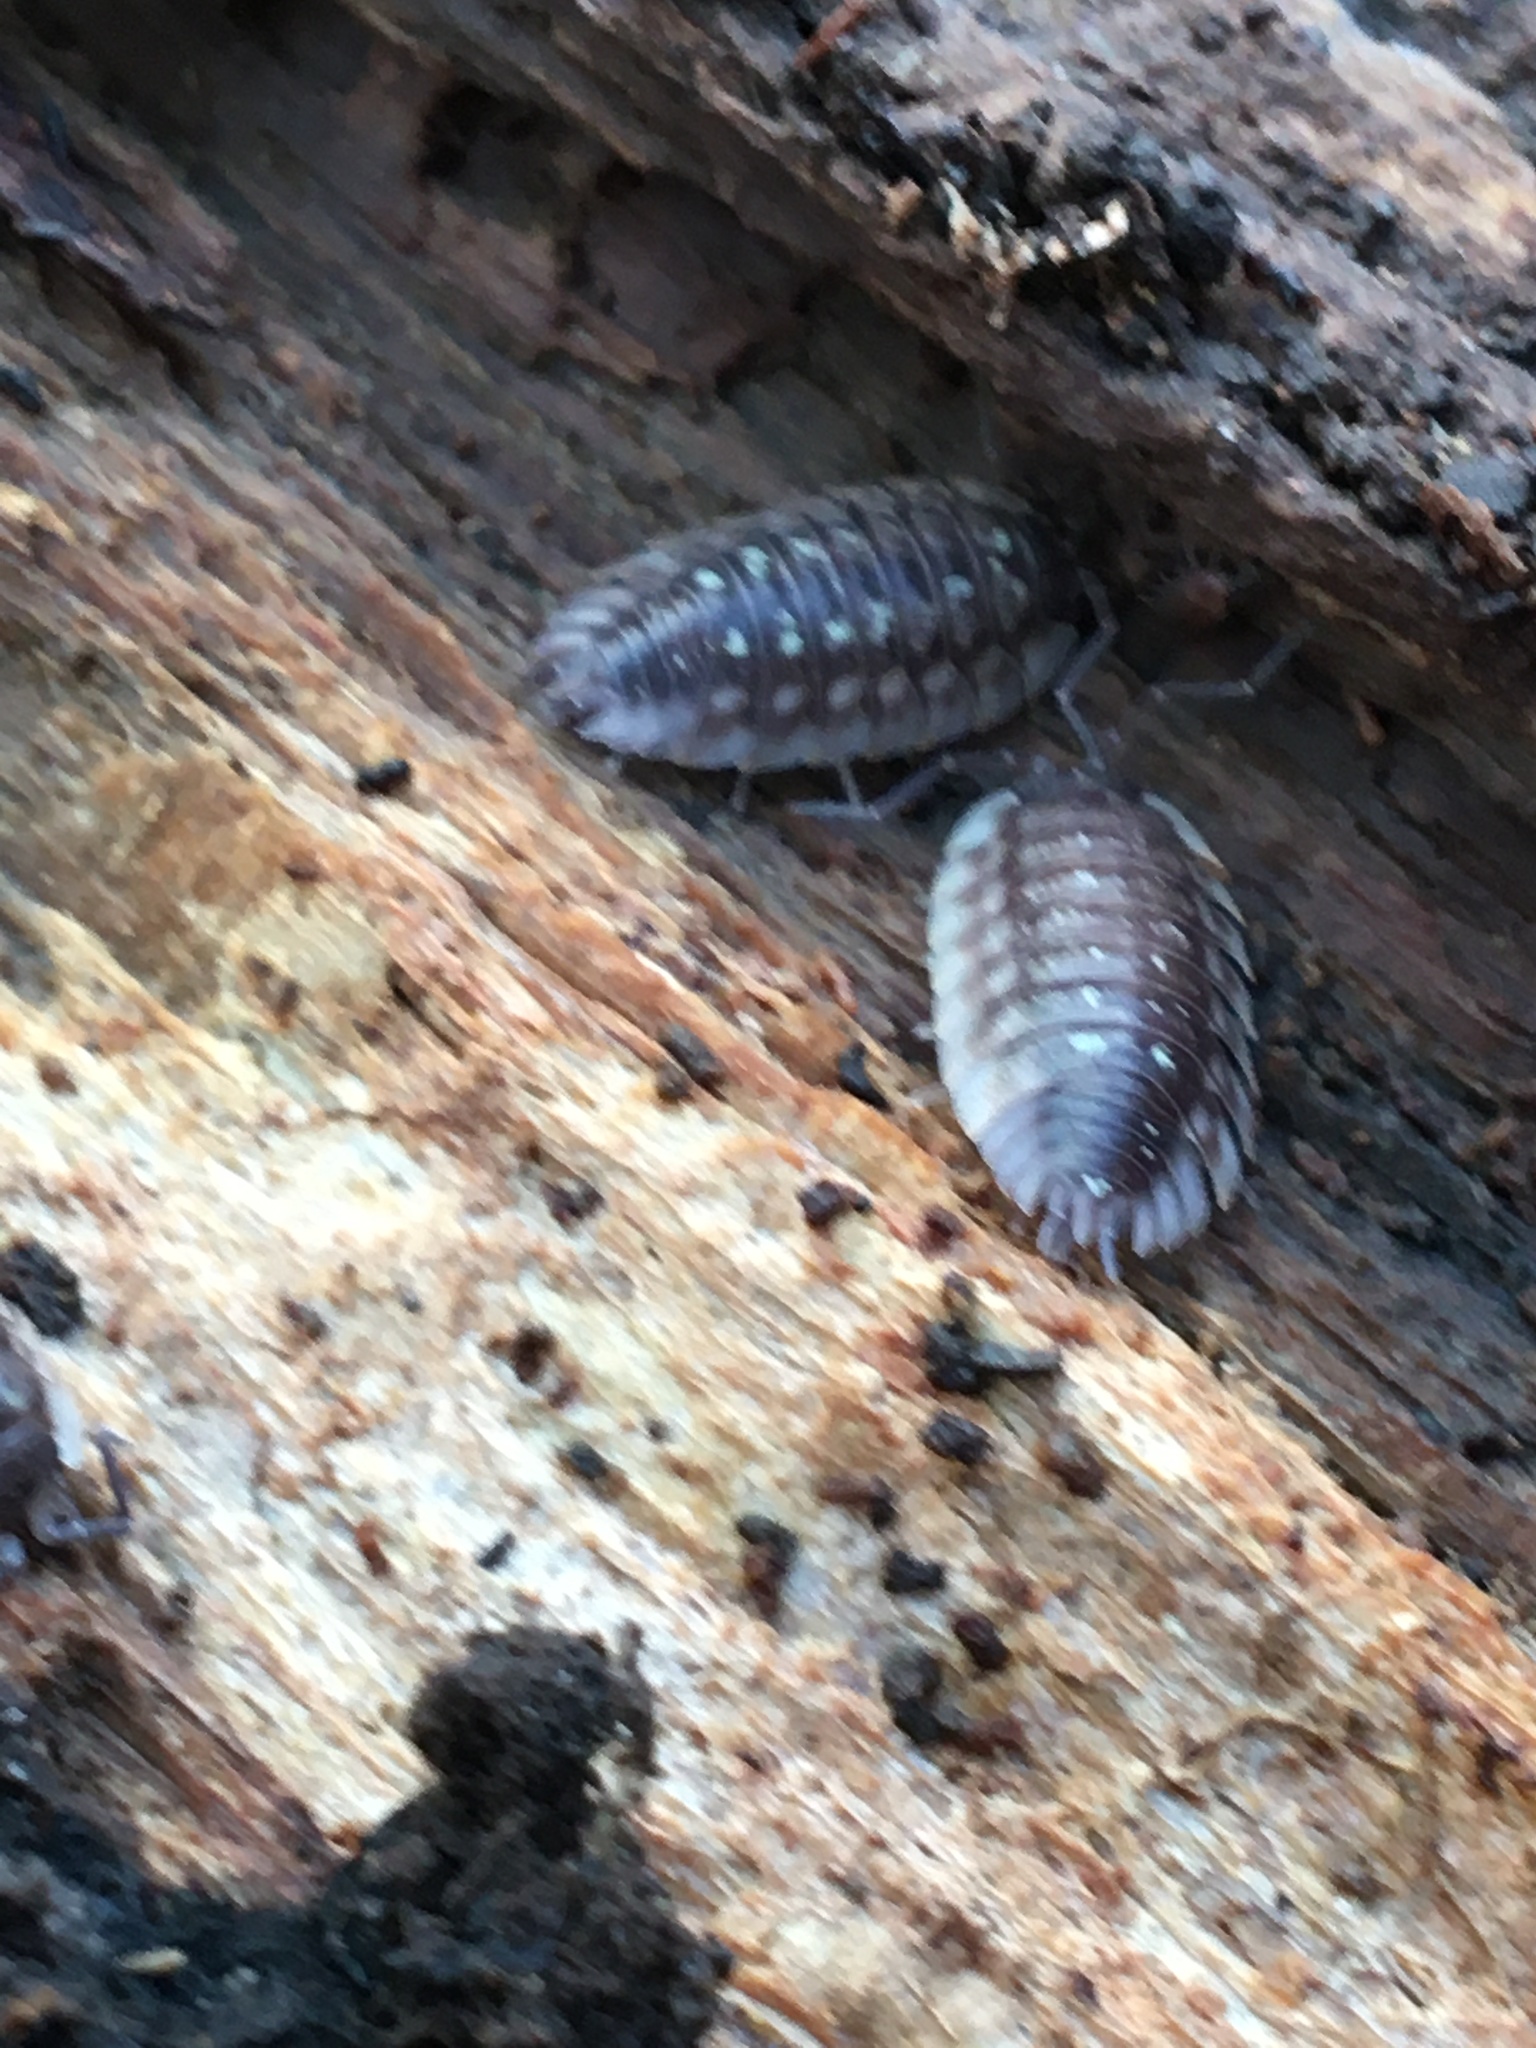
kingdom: Animalia
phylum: Arthropoda
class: Malacostraca
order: Isopoda
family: Oniscidae
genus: Oniscus
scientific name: Oniscus asellus
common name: Common shiny woodlouse
